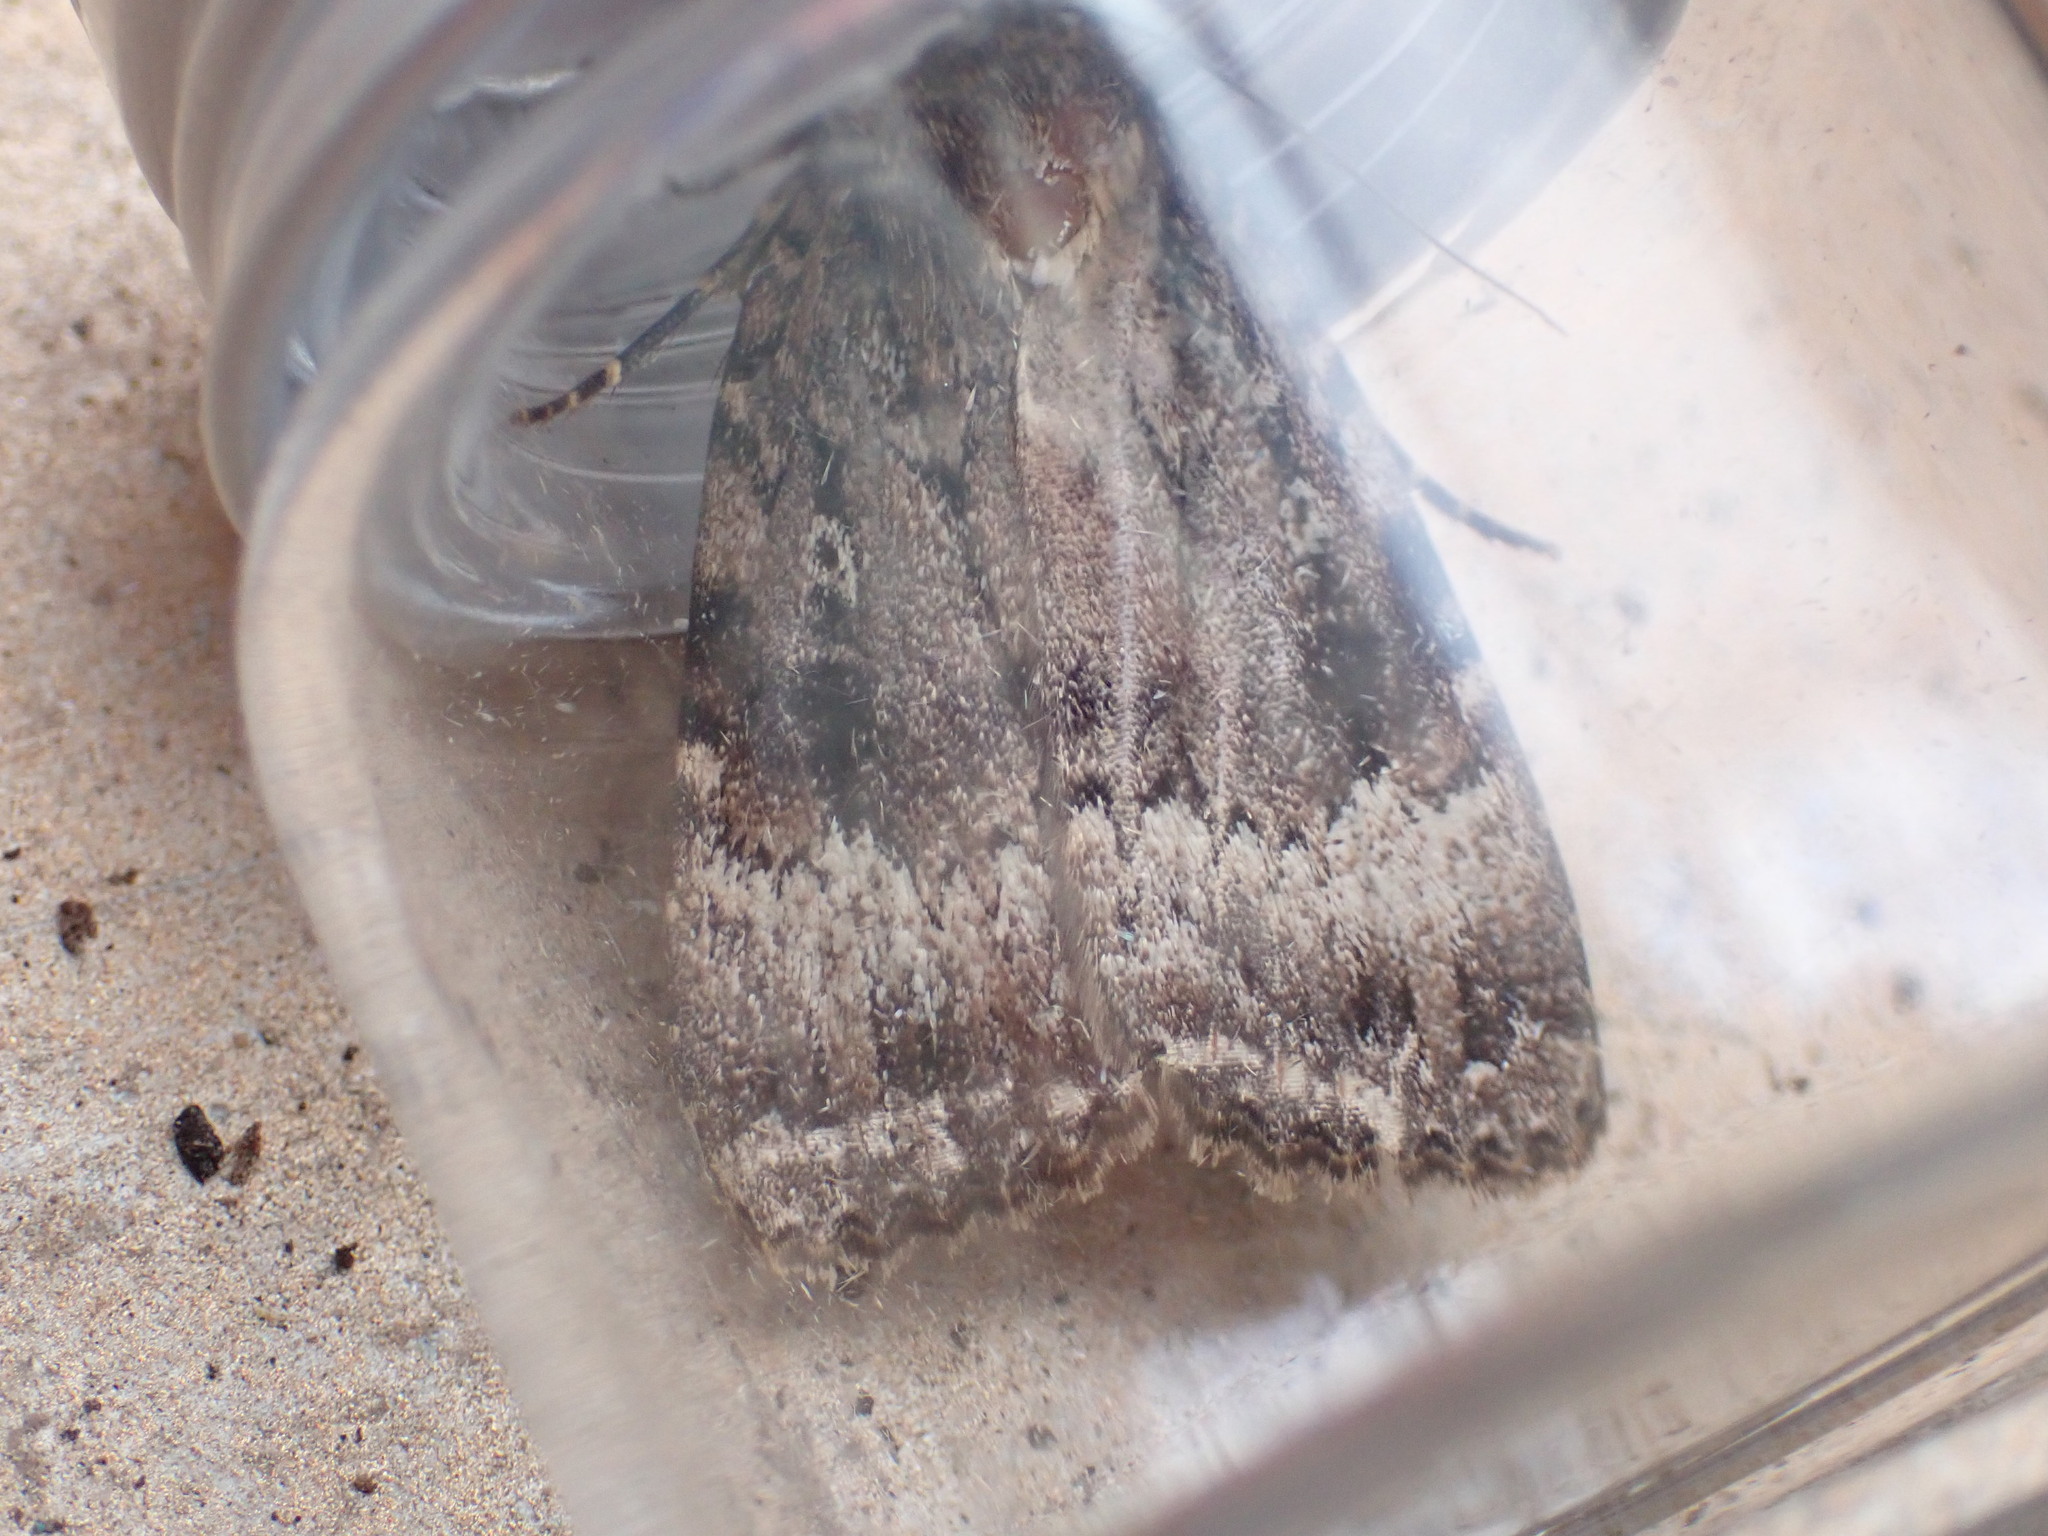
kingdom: Animalia
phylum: Arthropoda
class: Insecta
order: Lepidoptera
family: Noctuidae
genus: Amphipyra
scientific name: Amphipyra pyramidea
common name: Copper underwing
